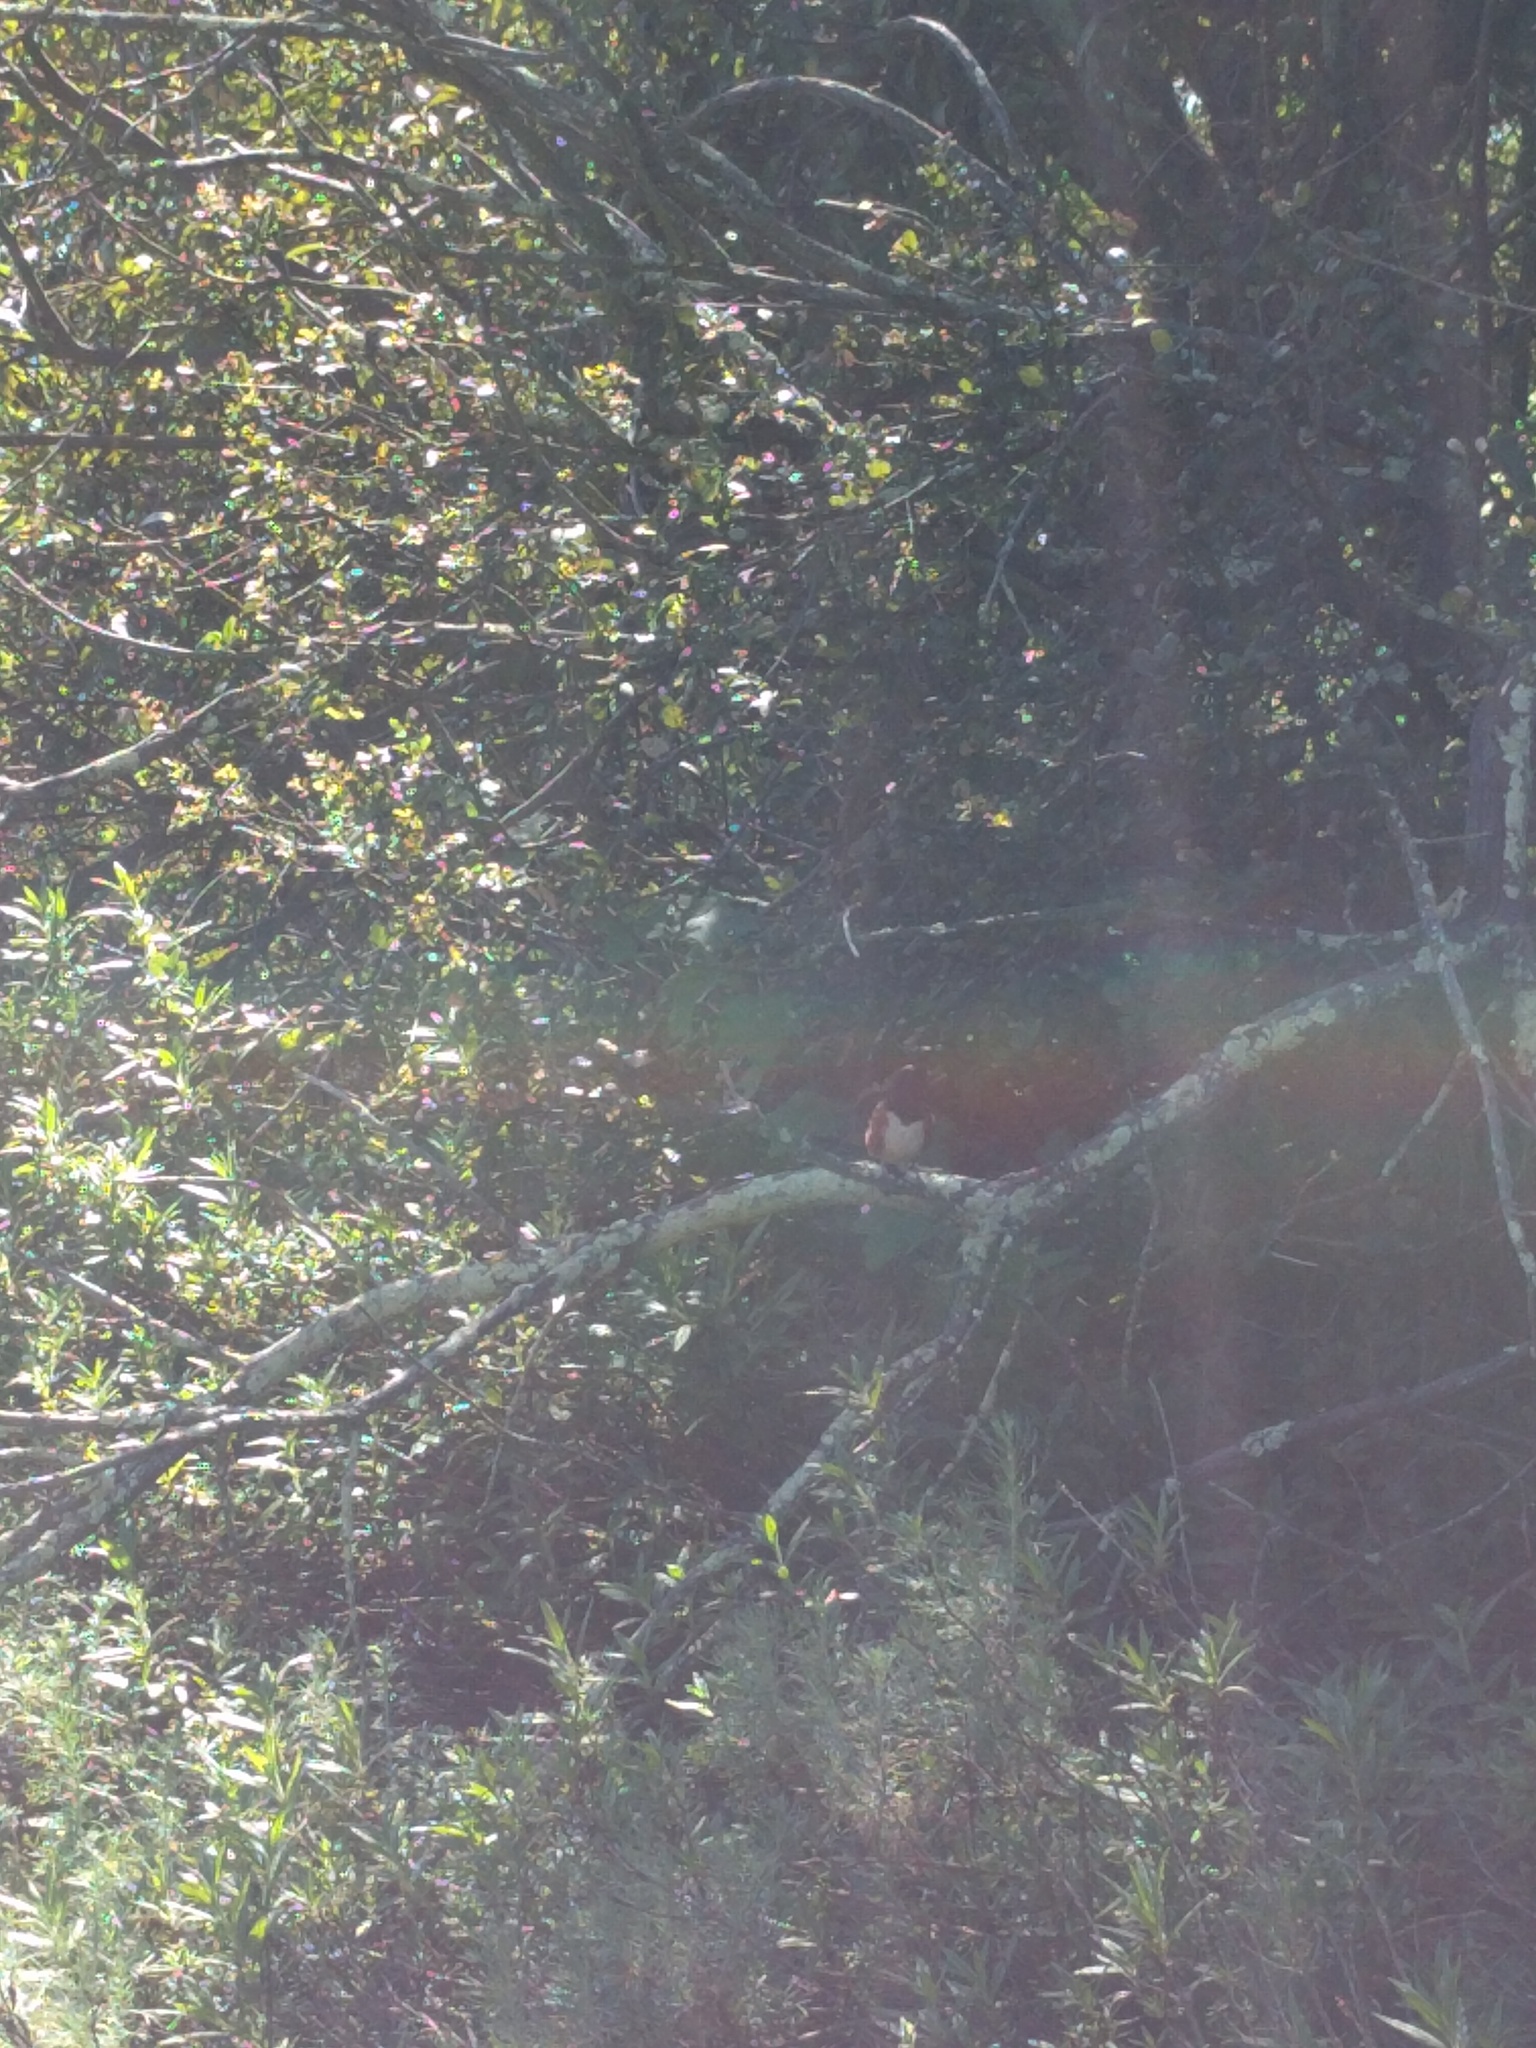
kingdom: Animalia
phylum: Chordata
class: Aves
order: Passeriformes
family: Passerellidae
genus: Pipilo
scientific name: Pipilo maculatus
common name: Spotted towhee
